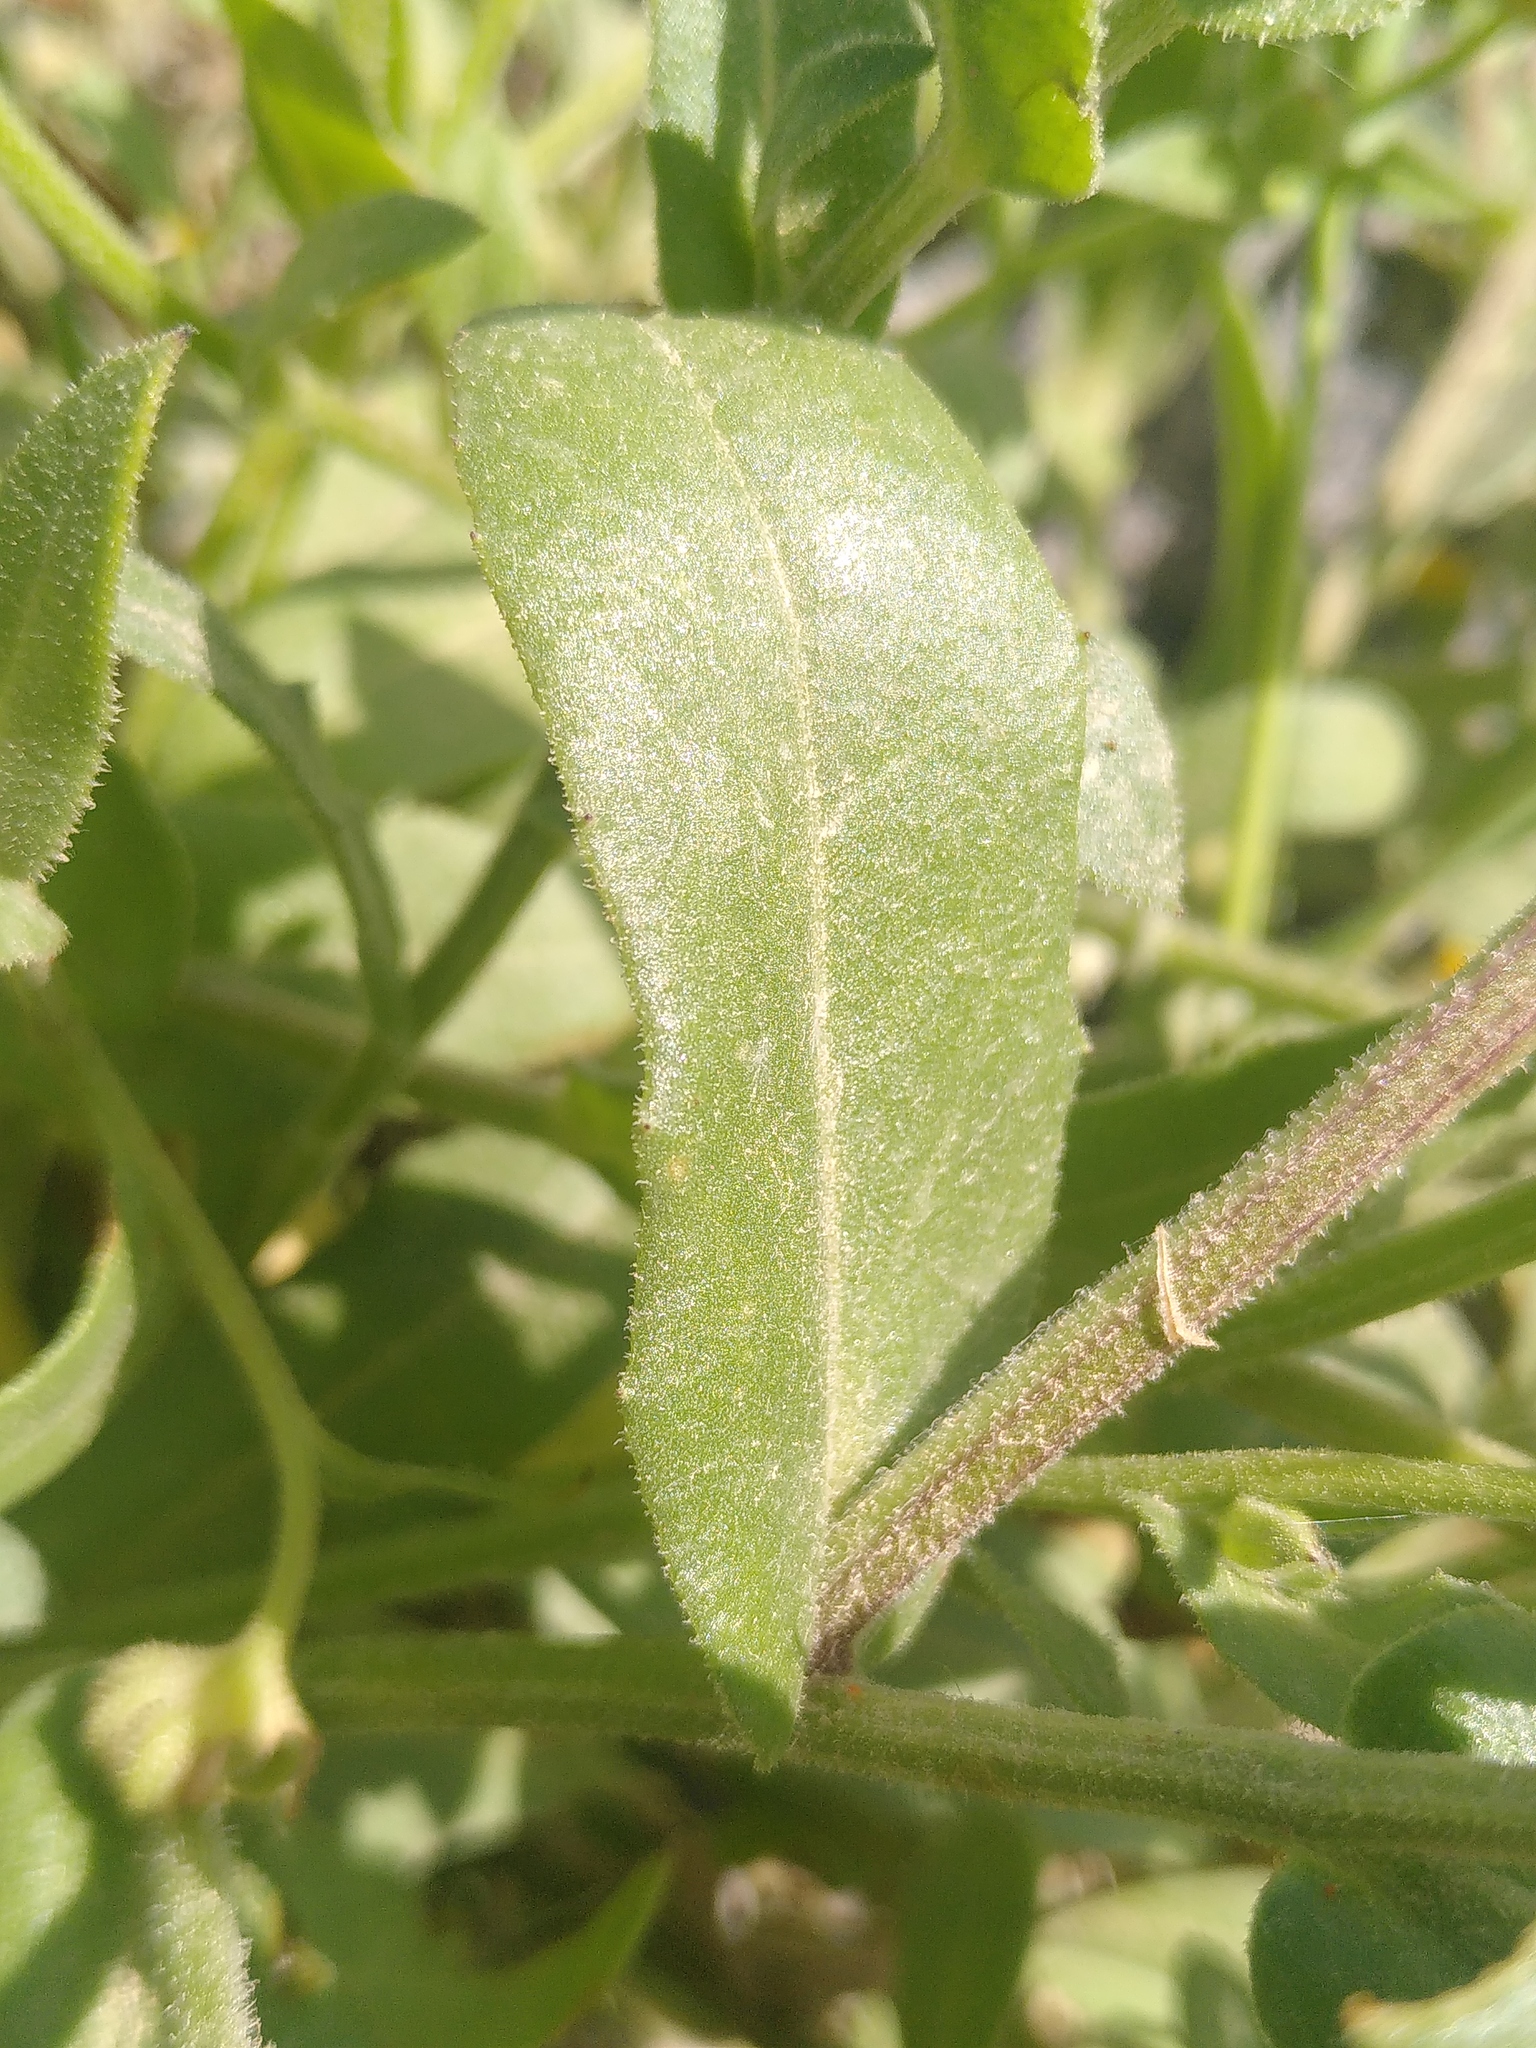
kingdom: Plantae
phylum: Tracheophyta
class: Magnoliopsida
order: Asterales
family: Asteraceae
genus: Calendula
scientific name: Calendula arvensis
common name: Field marigold
